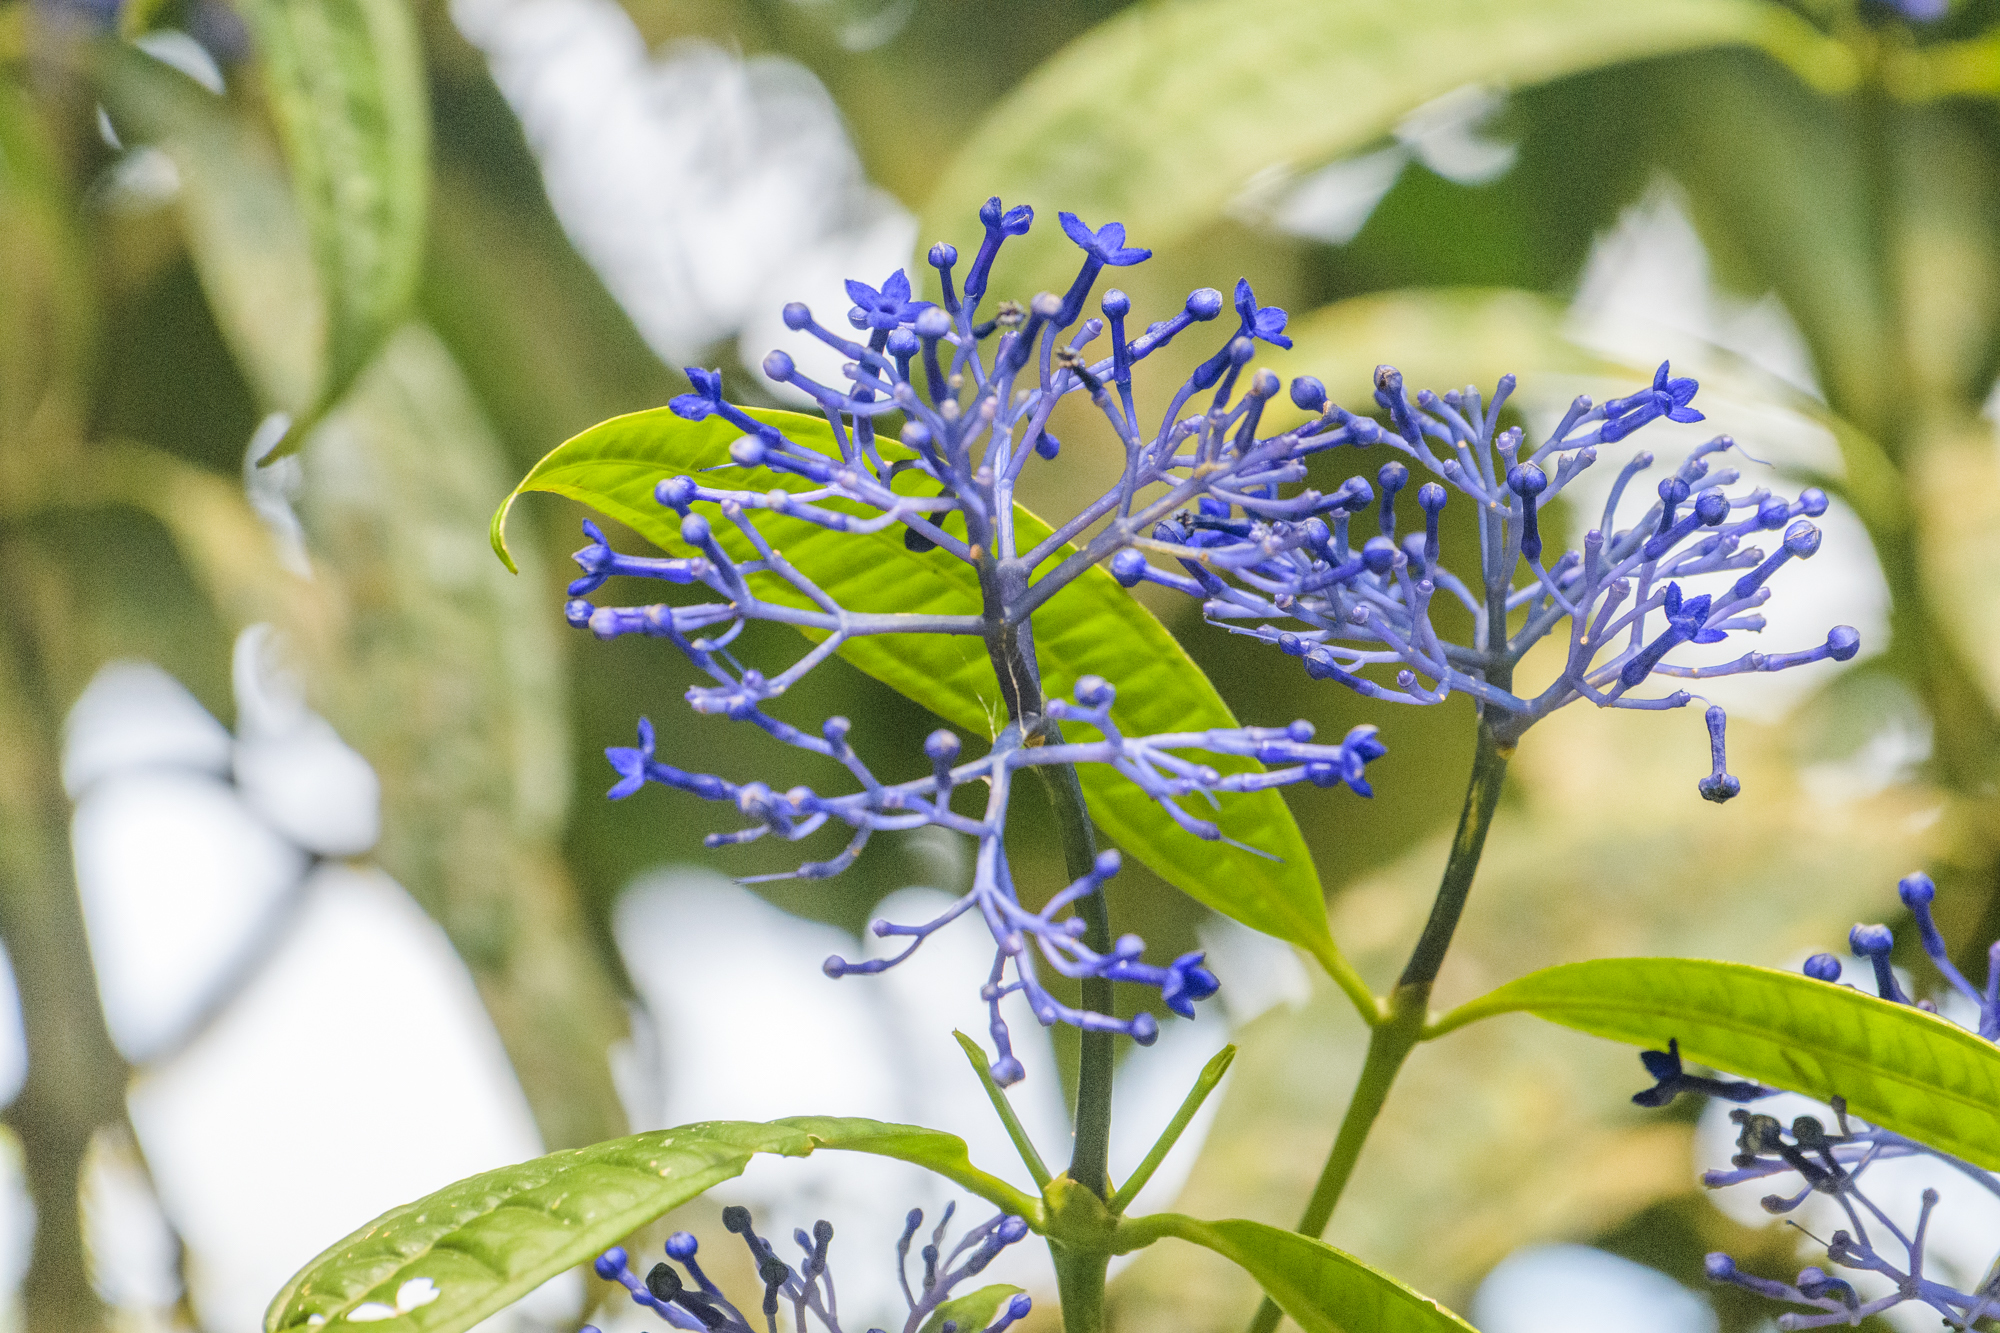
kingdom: Plantae
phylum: Tracheophyta
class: Magnoliopsida
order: Gentianales
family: Rubiaceae
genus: Faramea
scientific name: Faramea suerrensis
